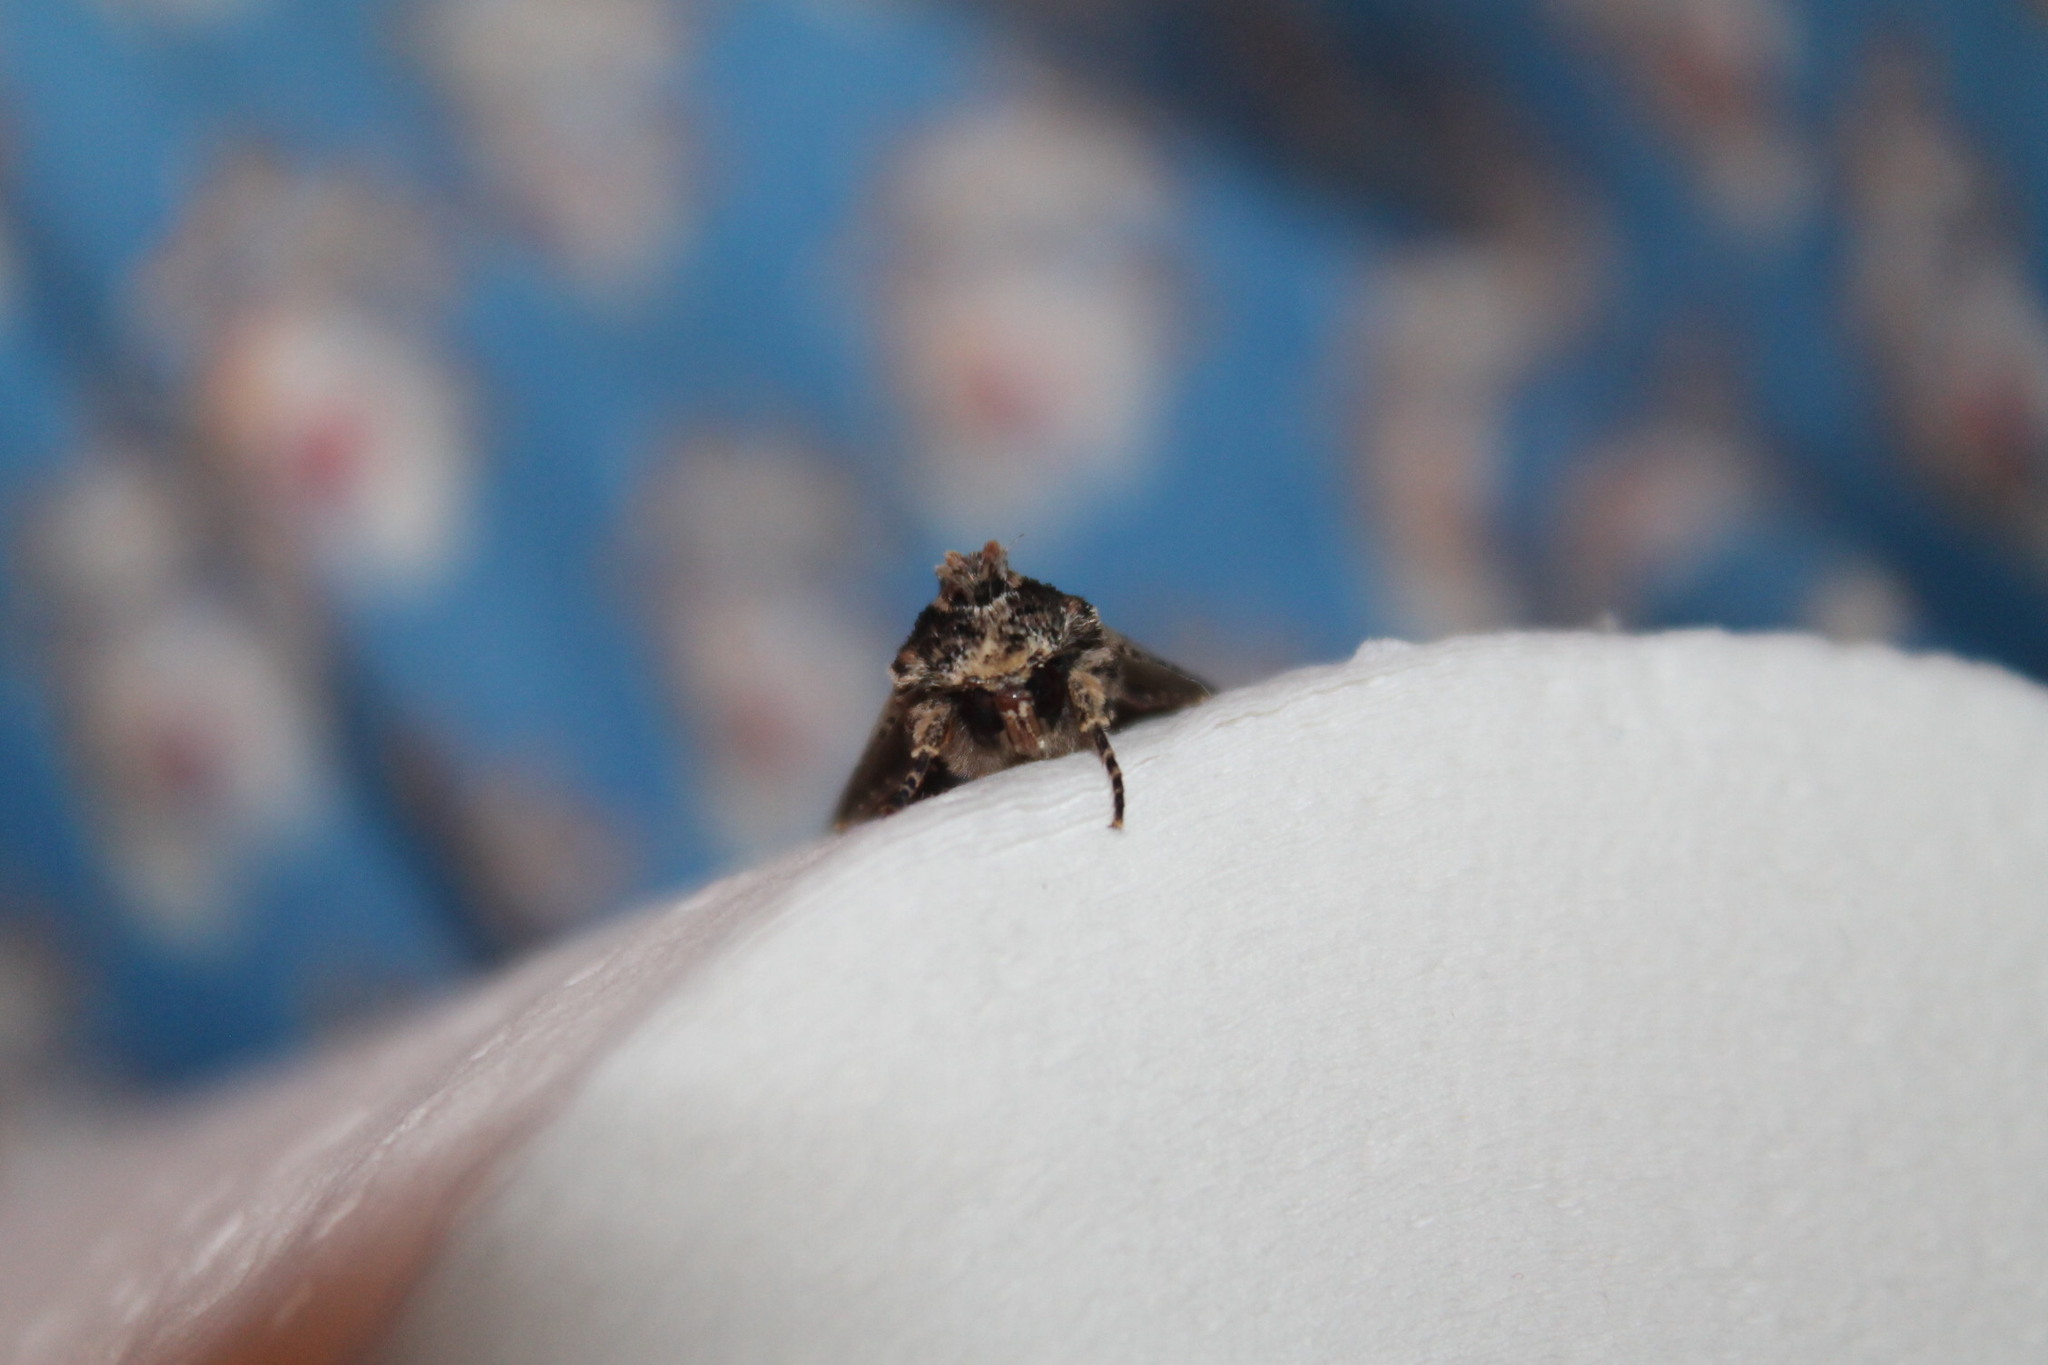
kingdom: Animalia
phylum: Arthropoda
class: Insecta
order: Lepidoptera
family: Noctuidae
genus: Achatia
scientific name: Achatia confusa
